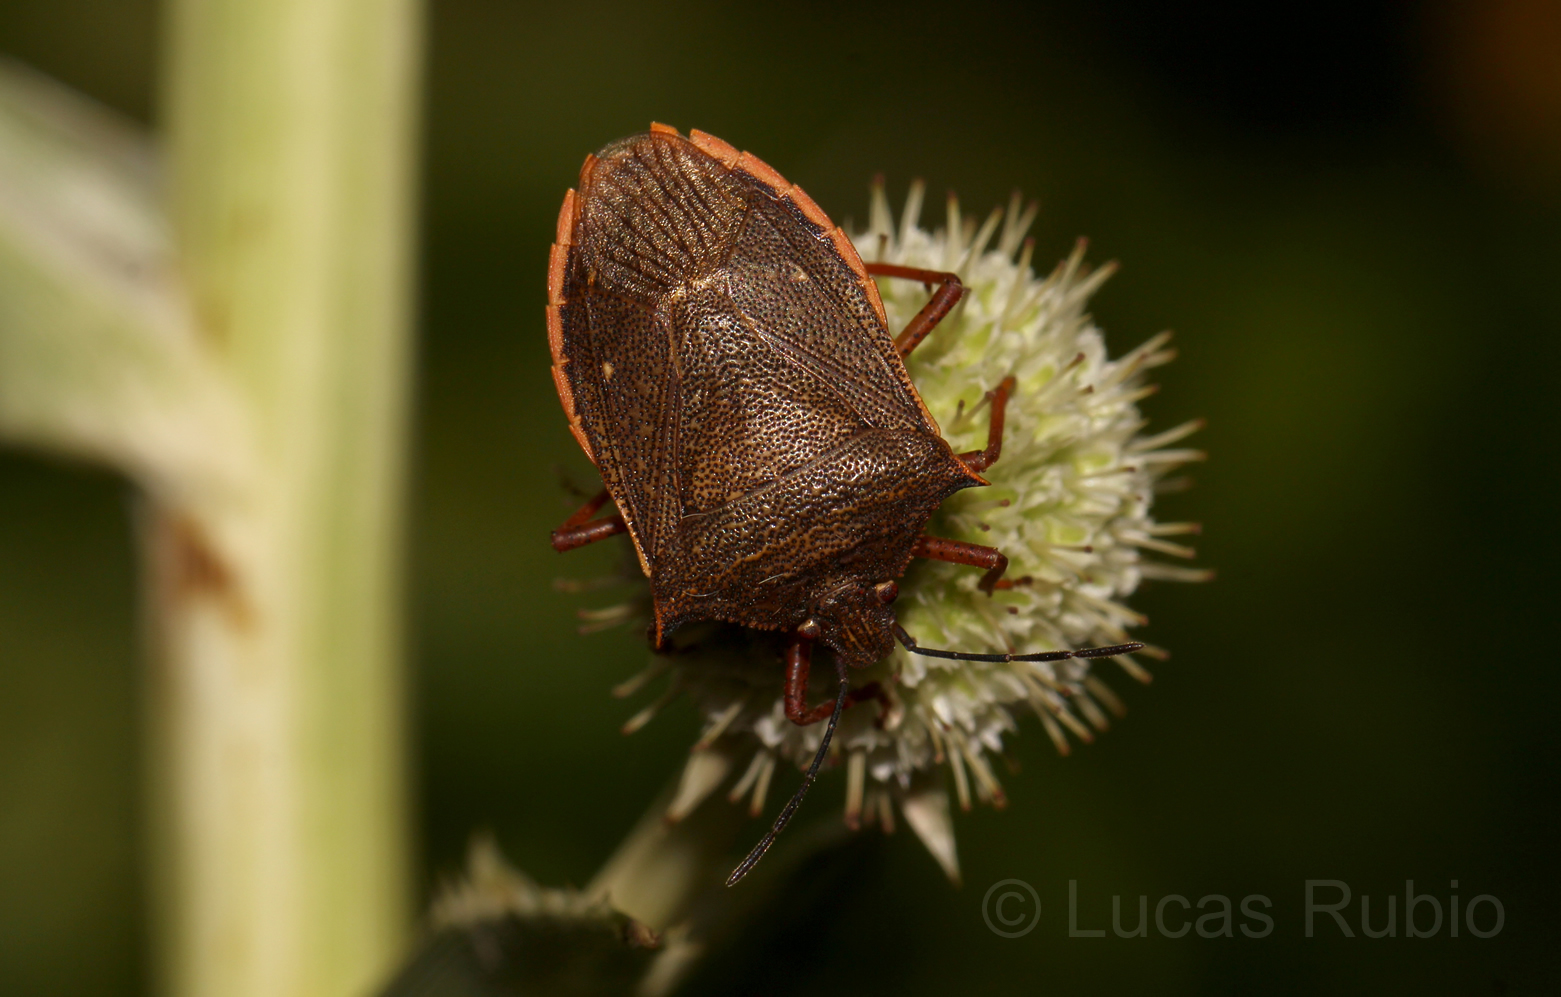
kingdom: Animalia
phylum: Arthropoda
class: Insecta
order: Hemiptera
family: Pentatomidae
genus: Euschistus
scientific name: Euschistus
